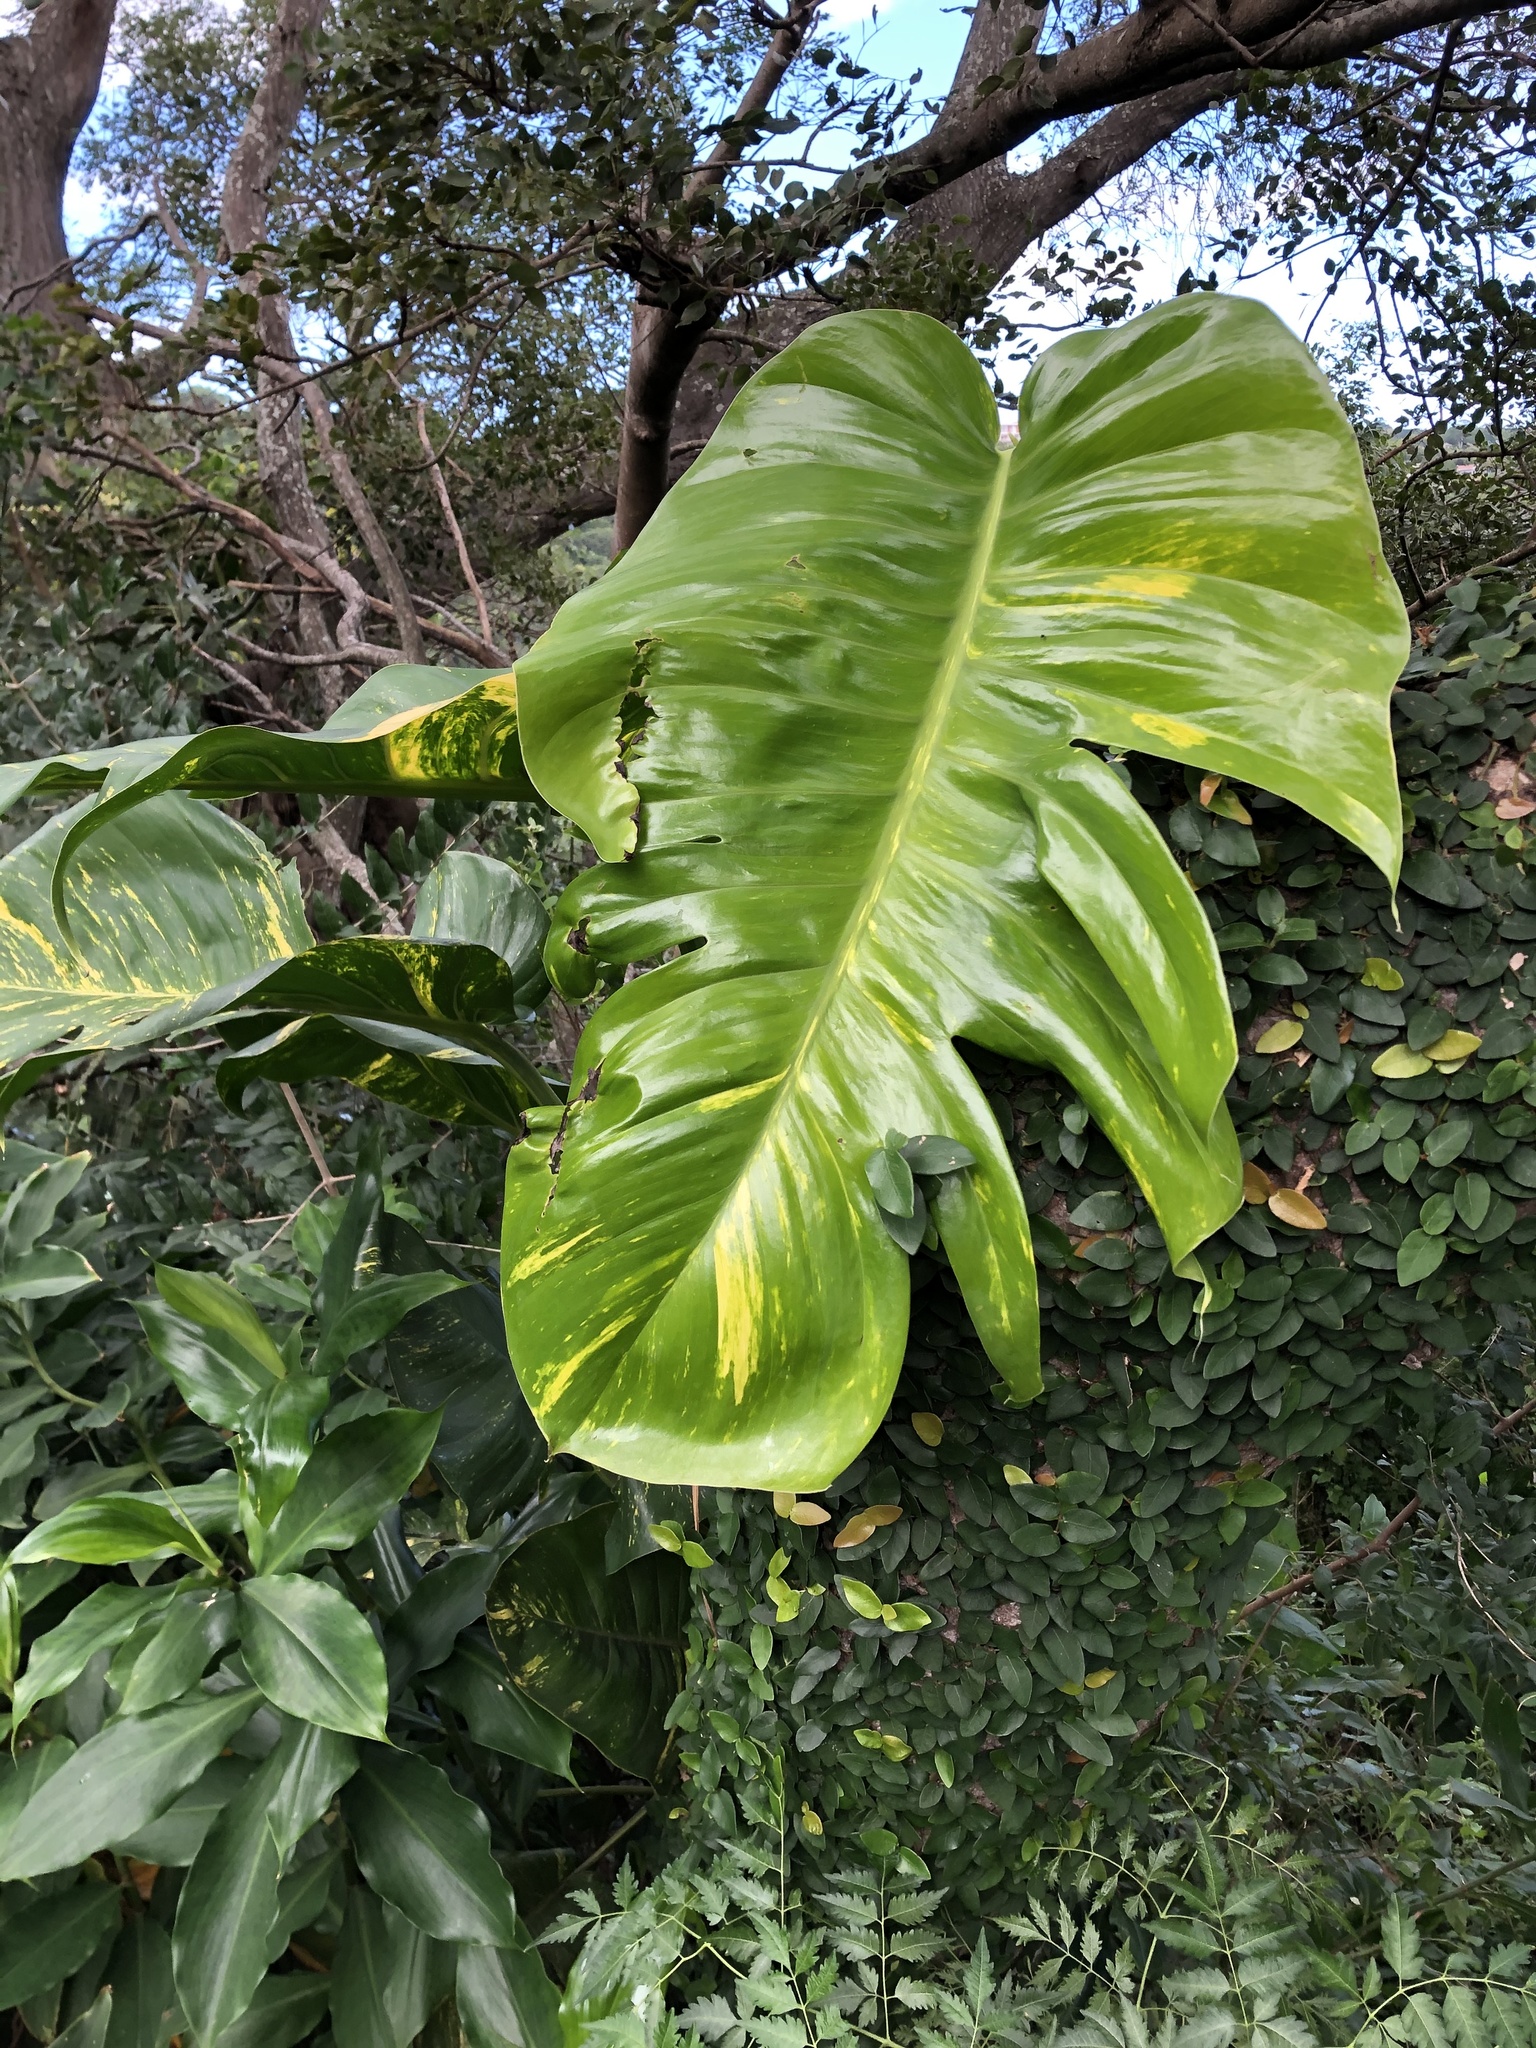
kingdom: Plantae
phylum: Tracheophyta
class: Liliopsida
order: Alismatales
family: Araceae
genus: Epipremnum
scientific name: Epipremnum aureum
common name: Golden hunter's-robe
